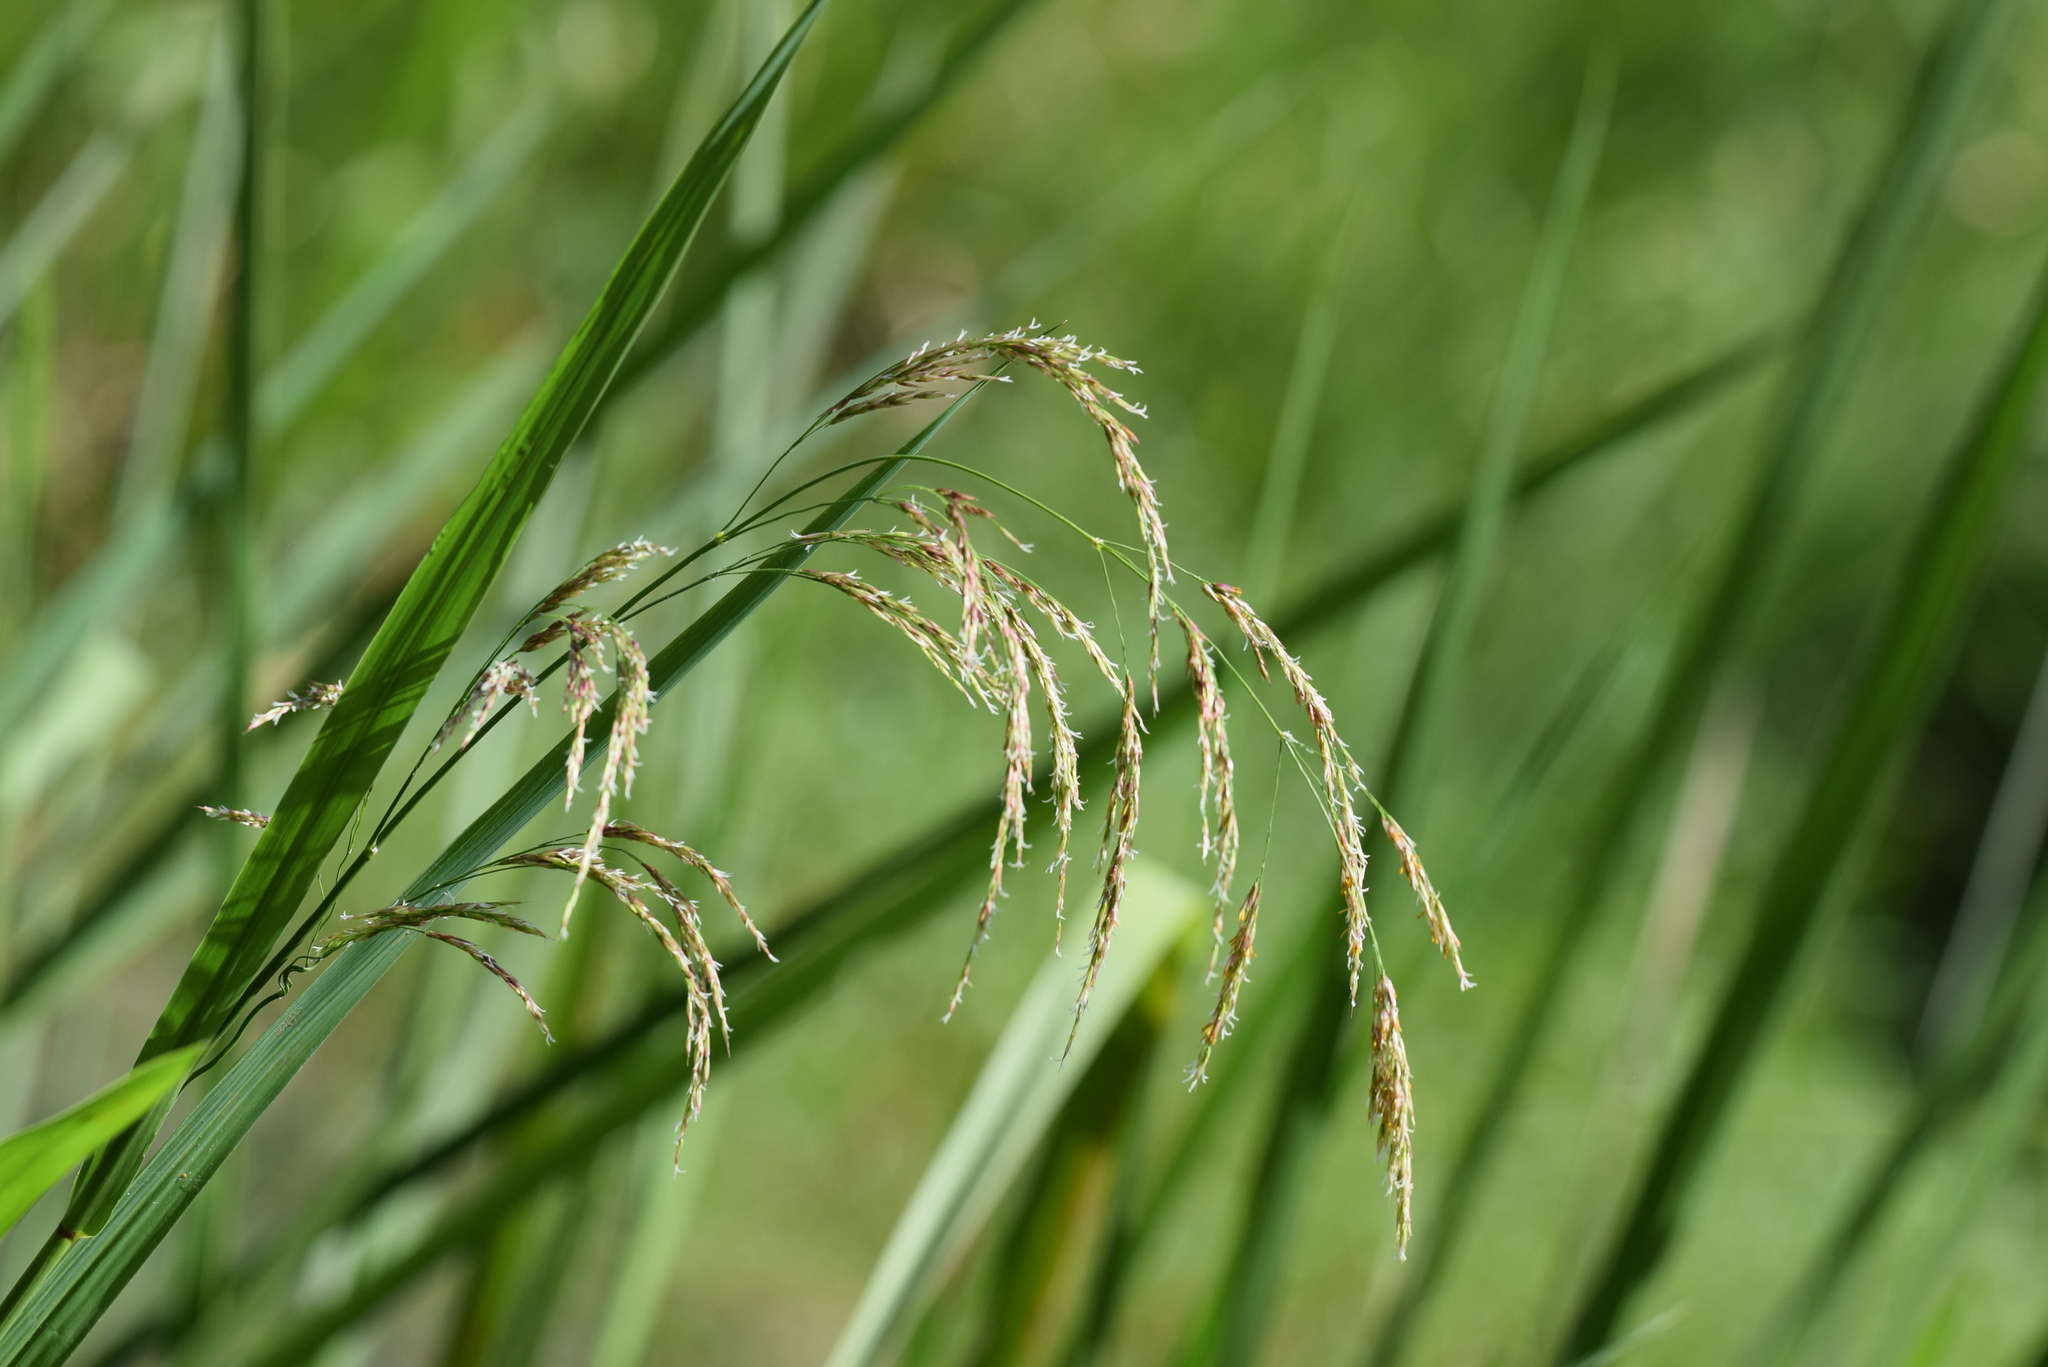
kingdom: Plantae
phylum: Tracheophyta
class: Liliopsida
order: Poales
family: Poaceae
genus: Zizaniopsis
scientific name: Zizaniopsis miliacea
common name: Giant-cutgrass
